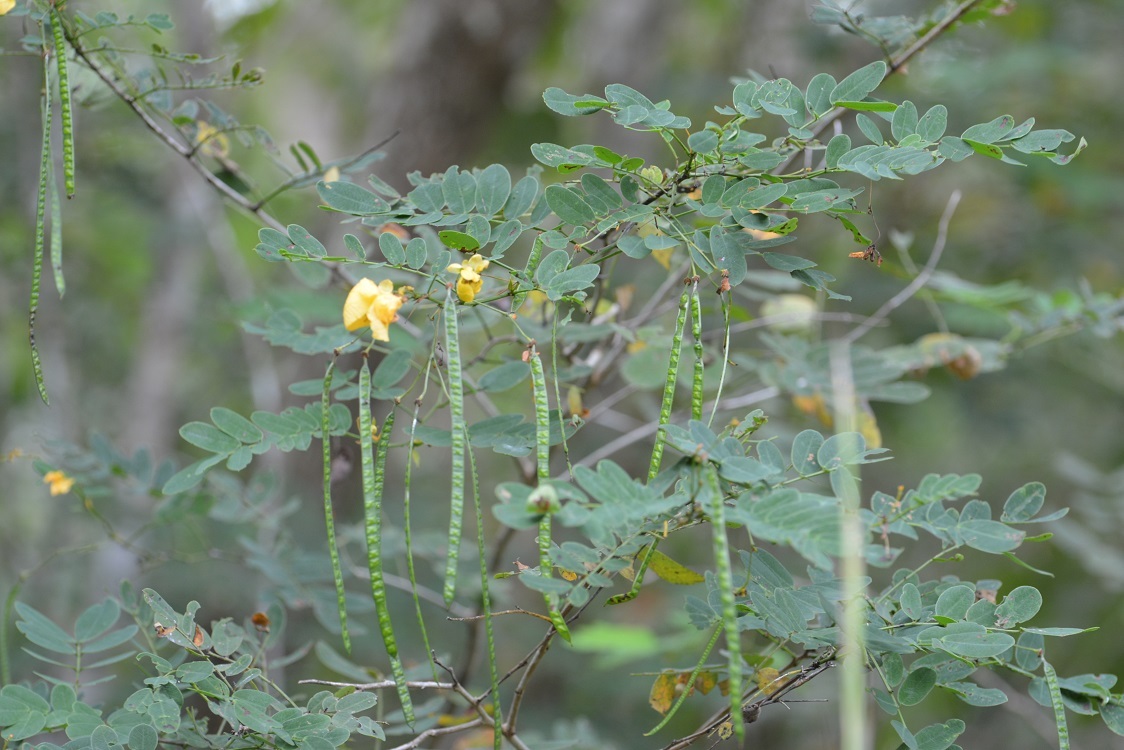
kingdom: Plantae
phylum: Tracheophyta
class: Magnoliopsida
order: Fabales
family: Fabaceae
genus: Senna
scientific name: Senna pallida
